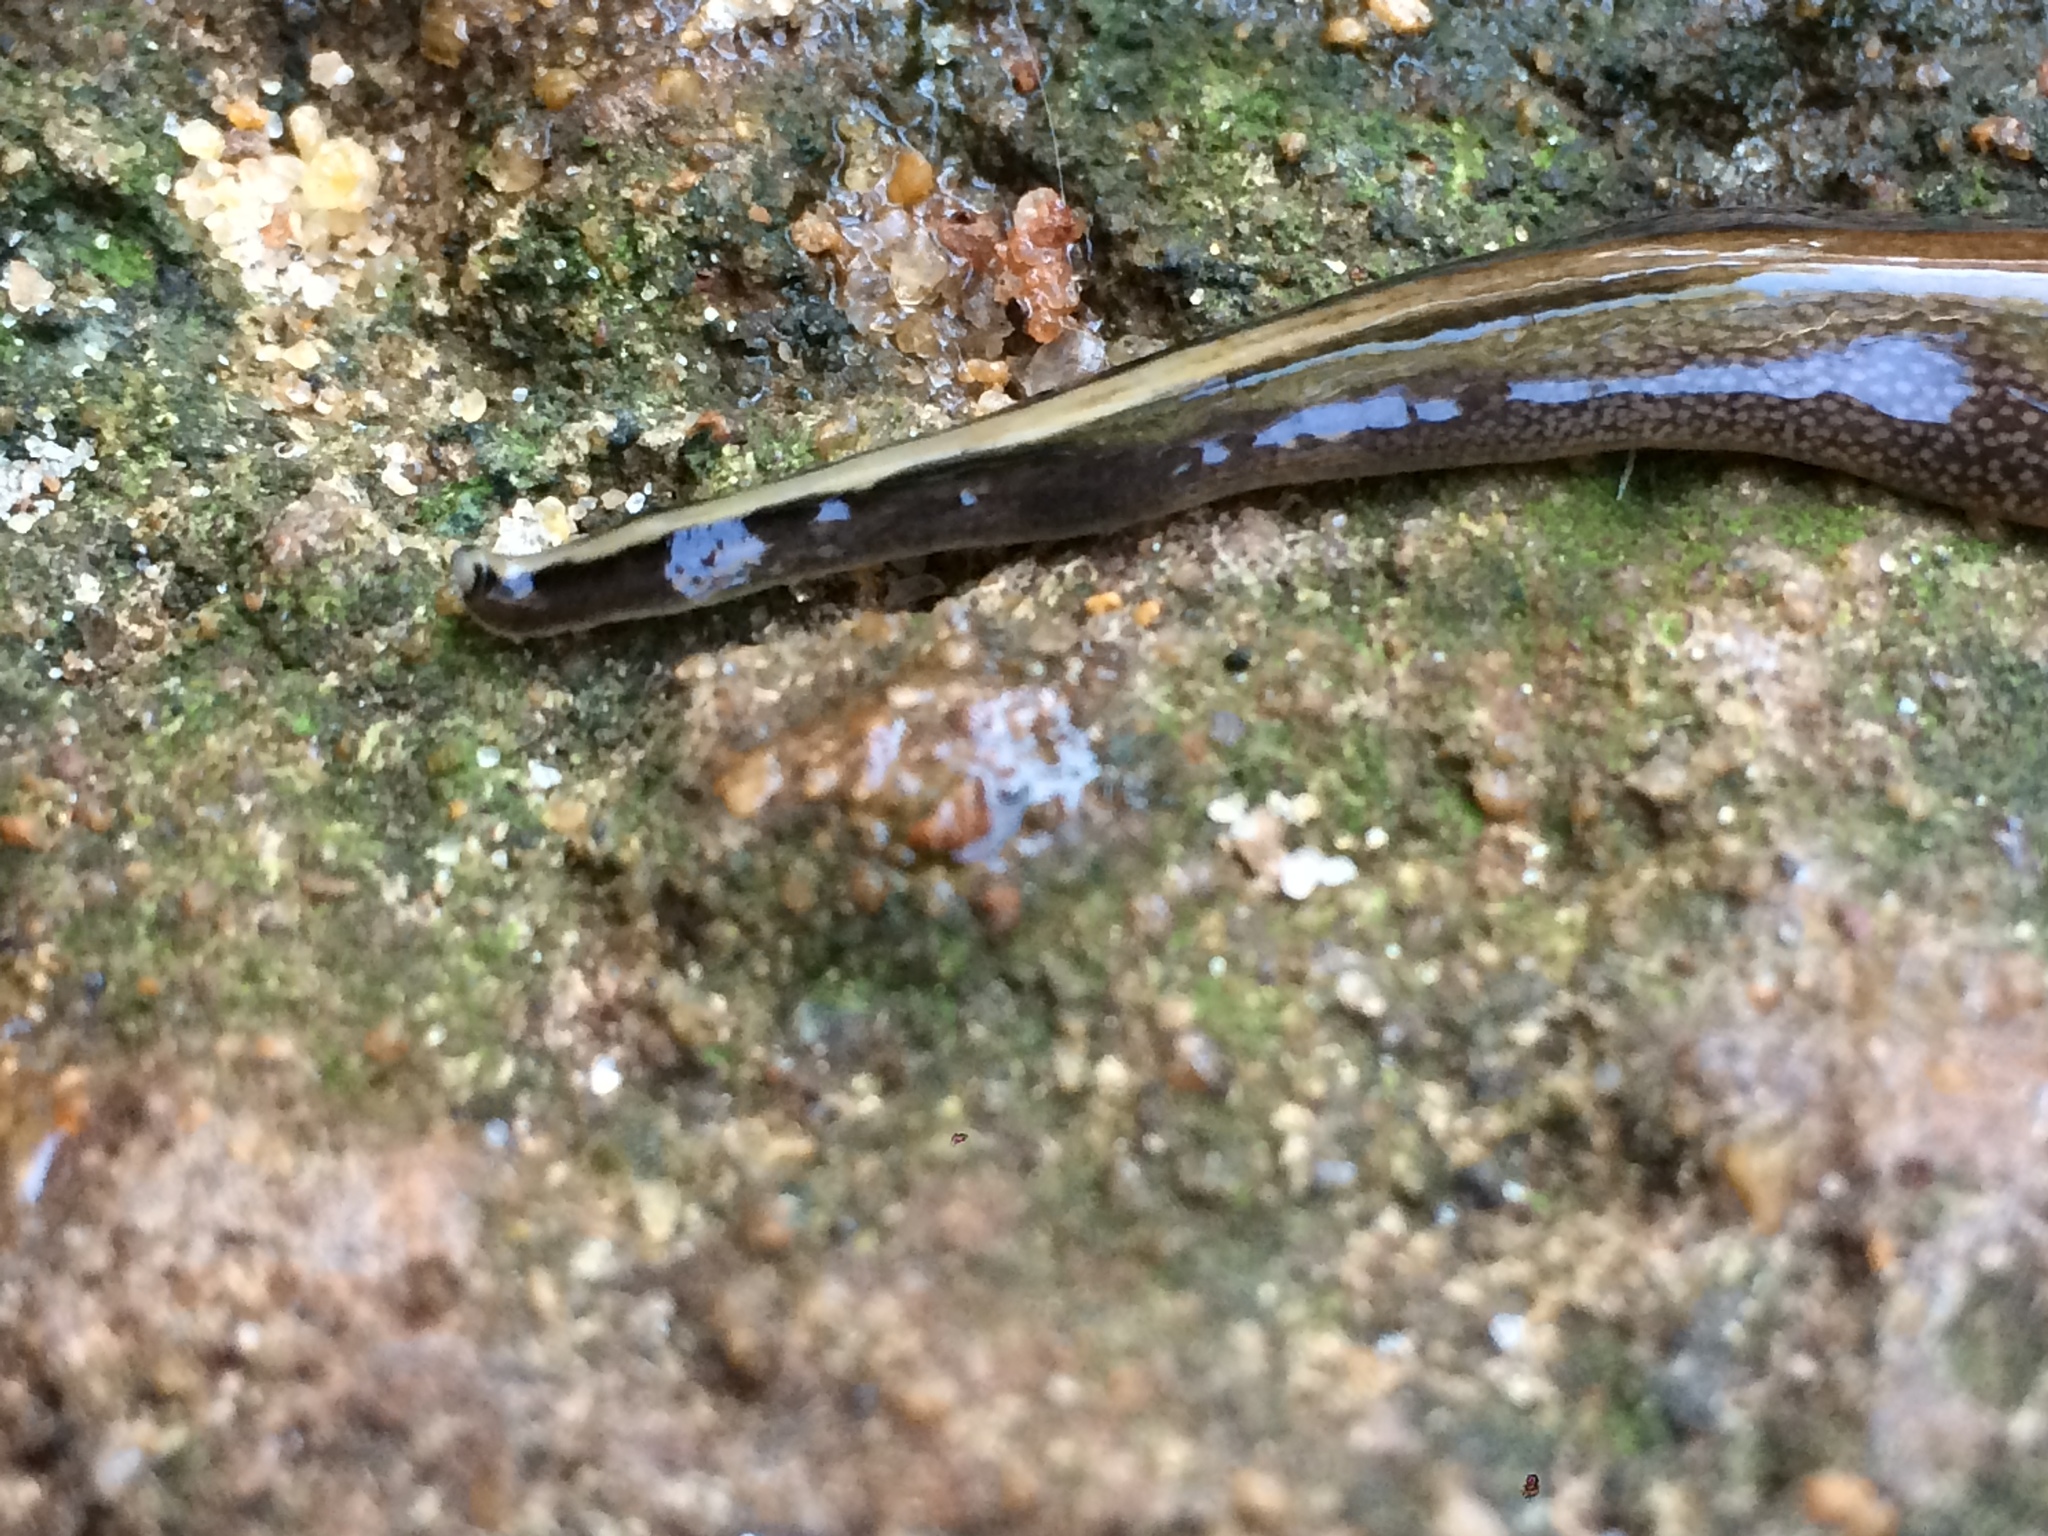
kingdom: Animalia
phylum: Platyhelminthes
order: Tricladida
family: Geoplanidae
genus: Obama
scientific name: Obama burmeisteri
